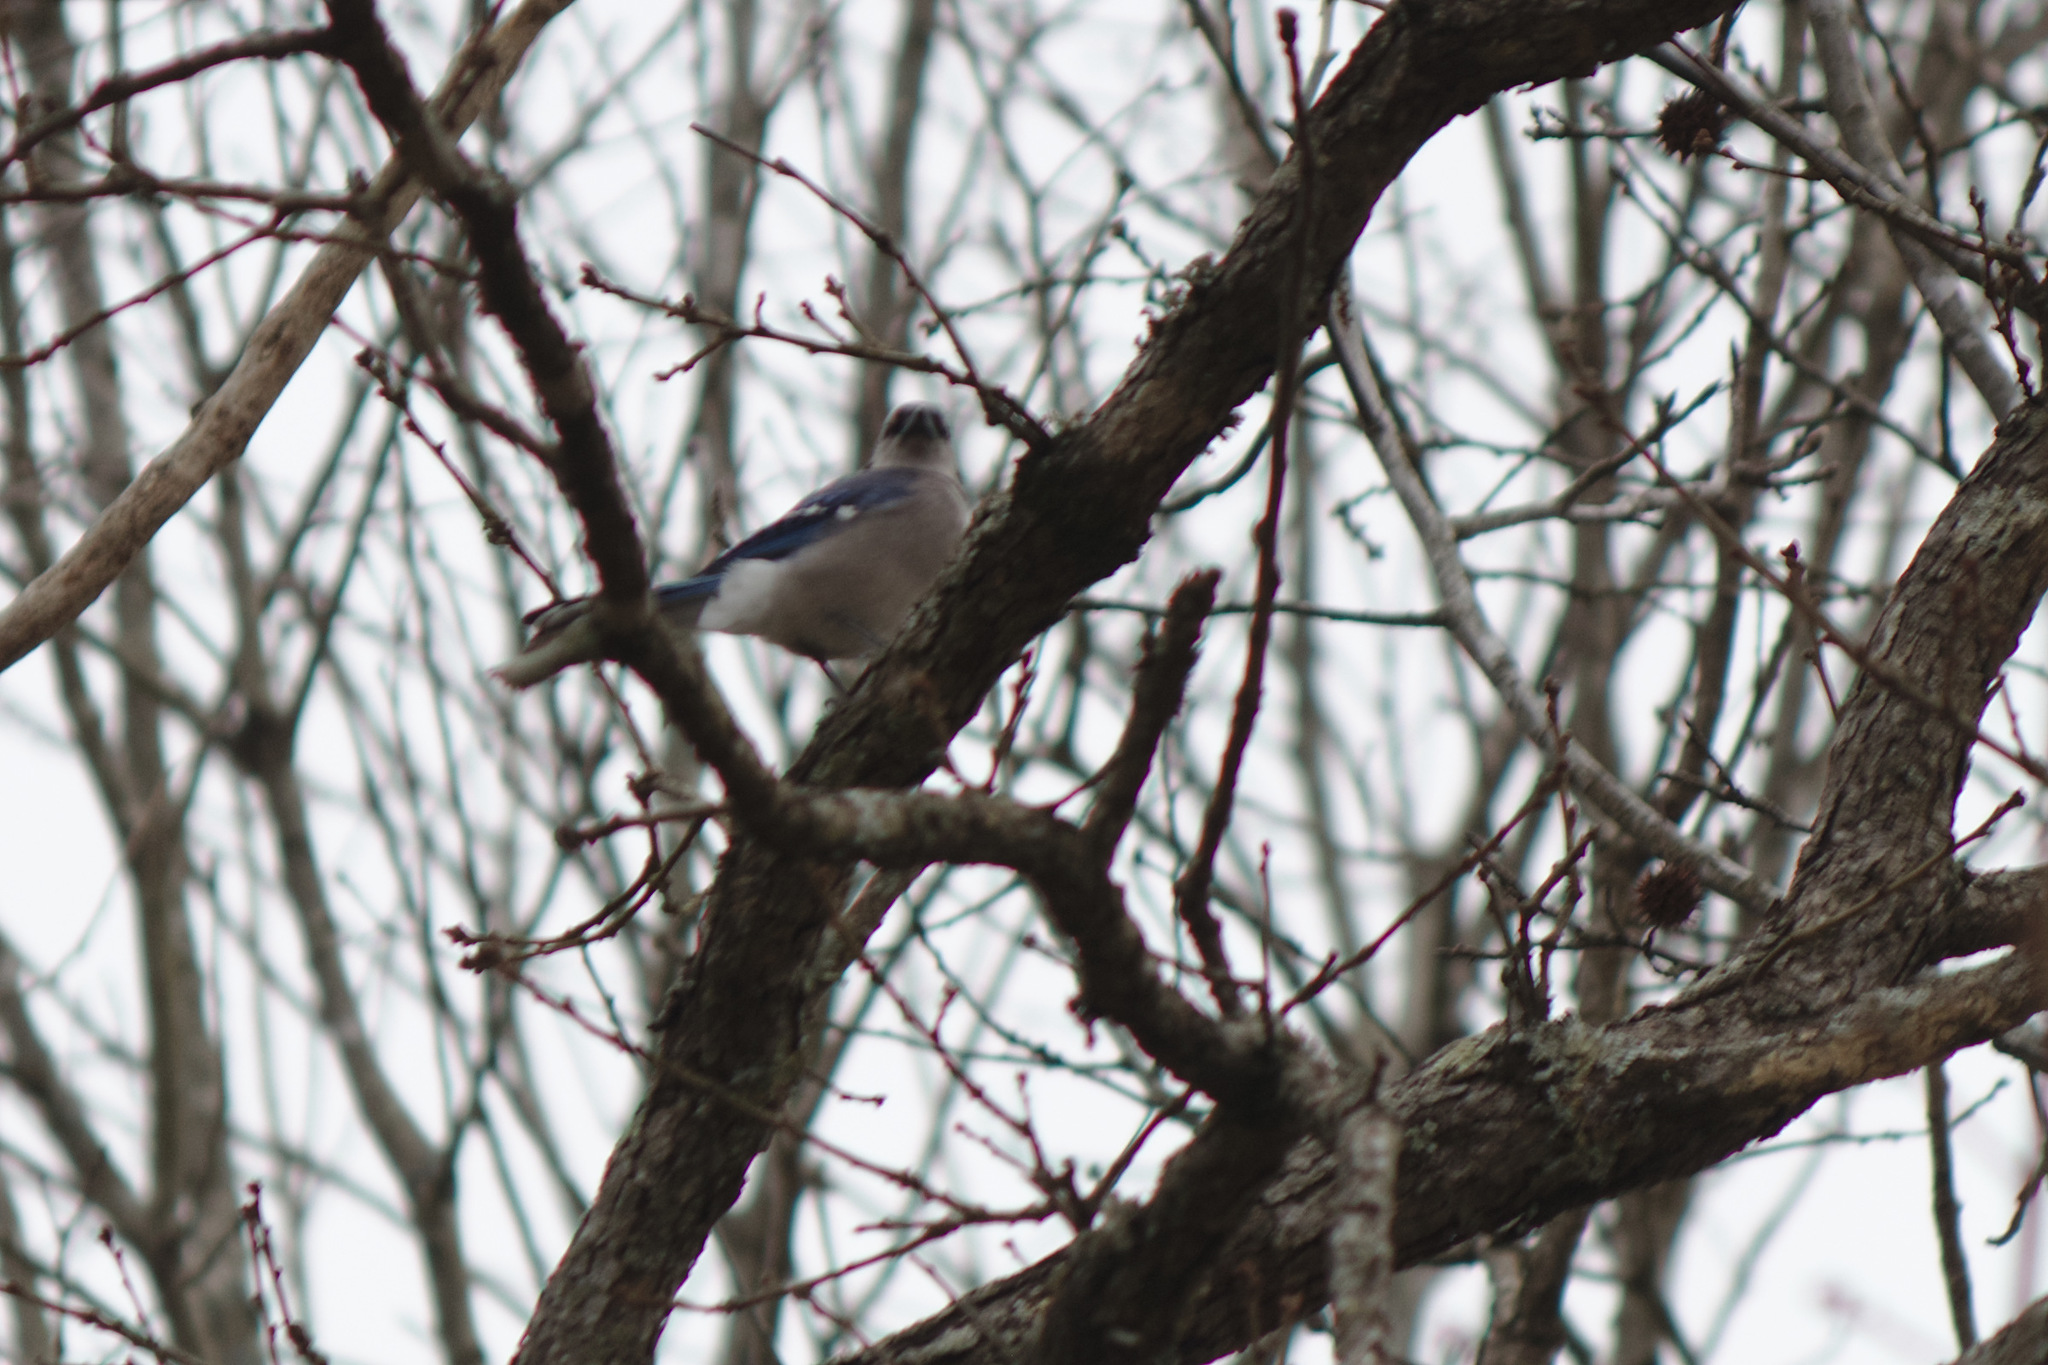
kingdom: Animalia
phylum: Chordata
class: Aves
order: Passeriformes
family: Corvidae
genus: Cyanocitta
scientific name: Cyanocitta cristata
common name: Blue jay
